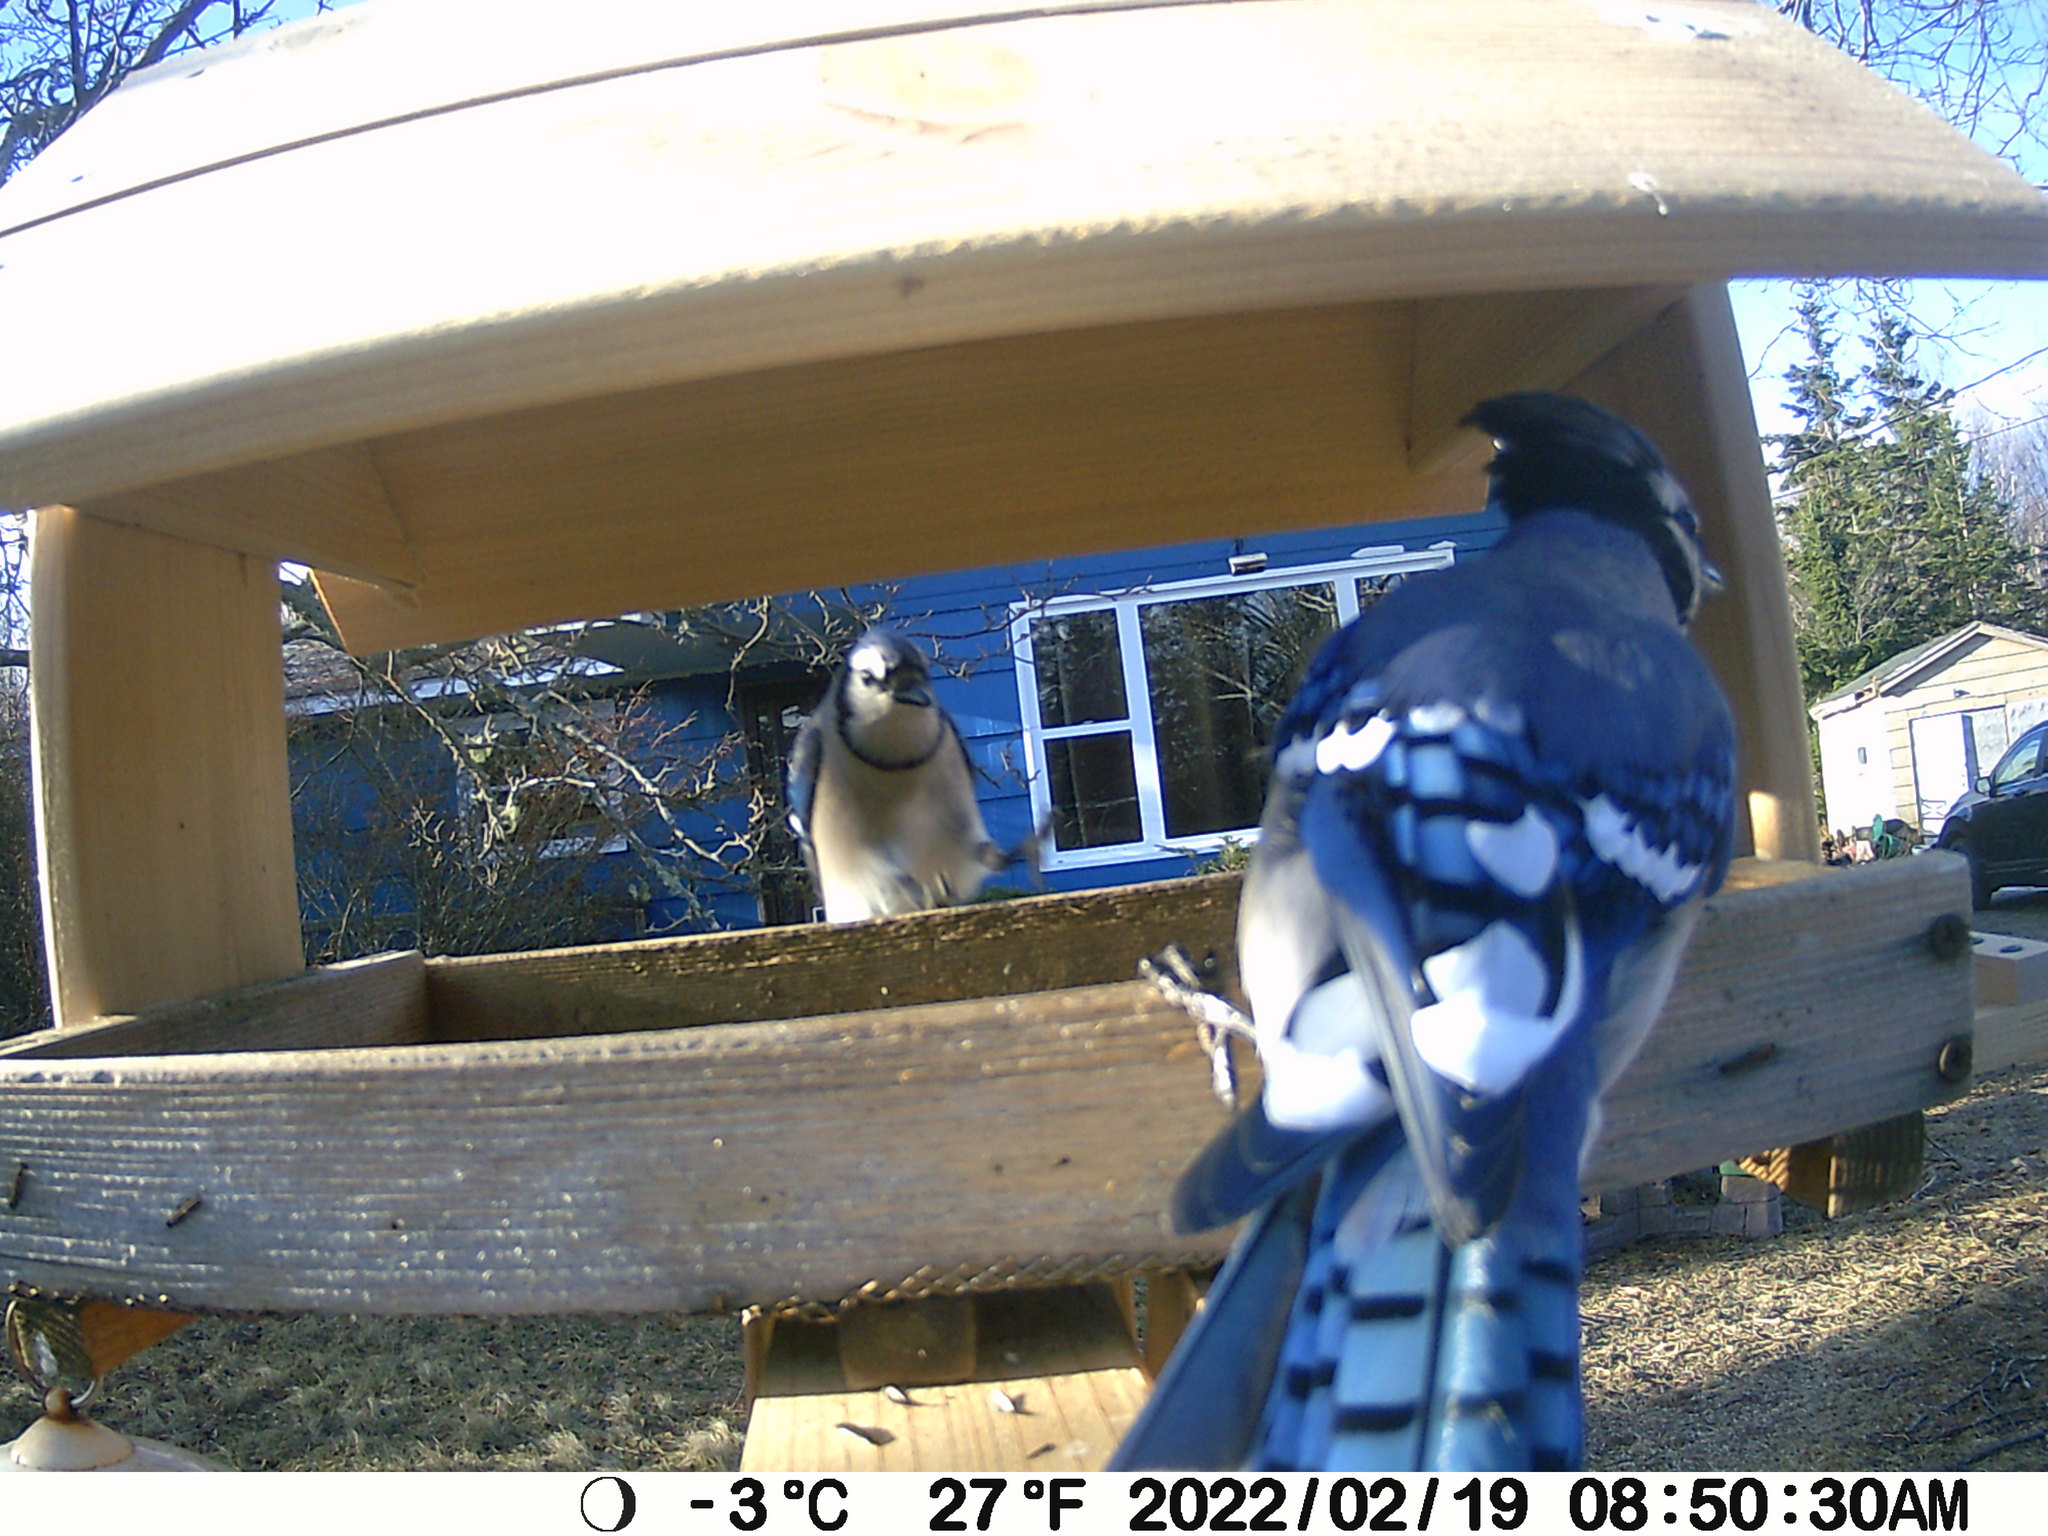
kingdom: Animalia
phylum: Chordata
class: Aves
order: Passeriformes
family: Corvidae
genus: Cyanocitta
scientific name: Cyanocitta cristata
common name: Blue jay
